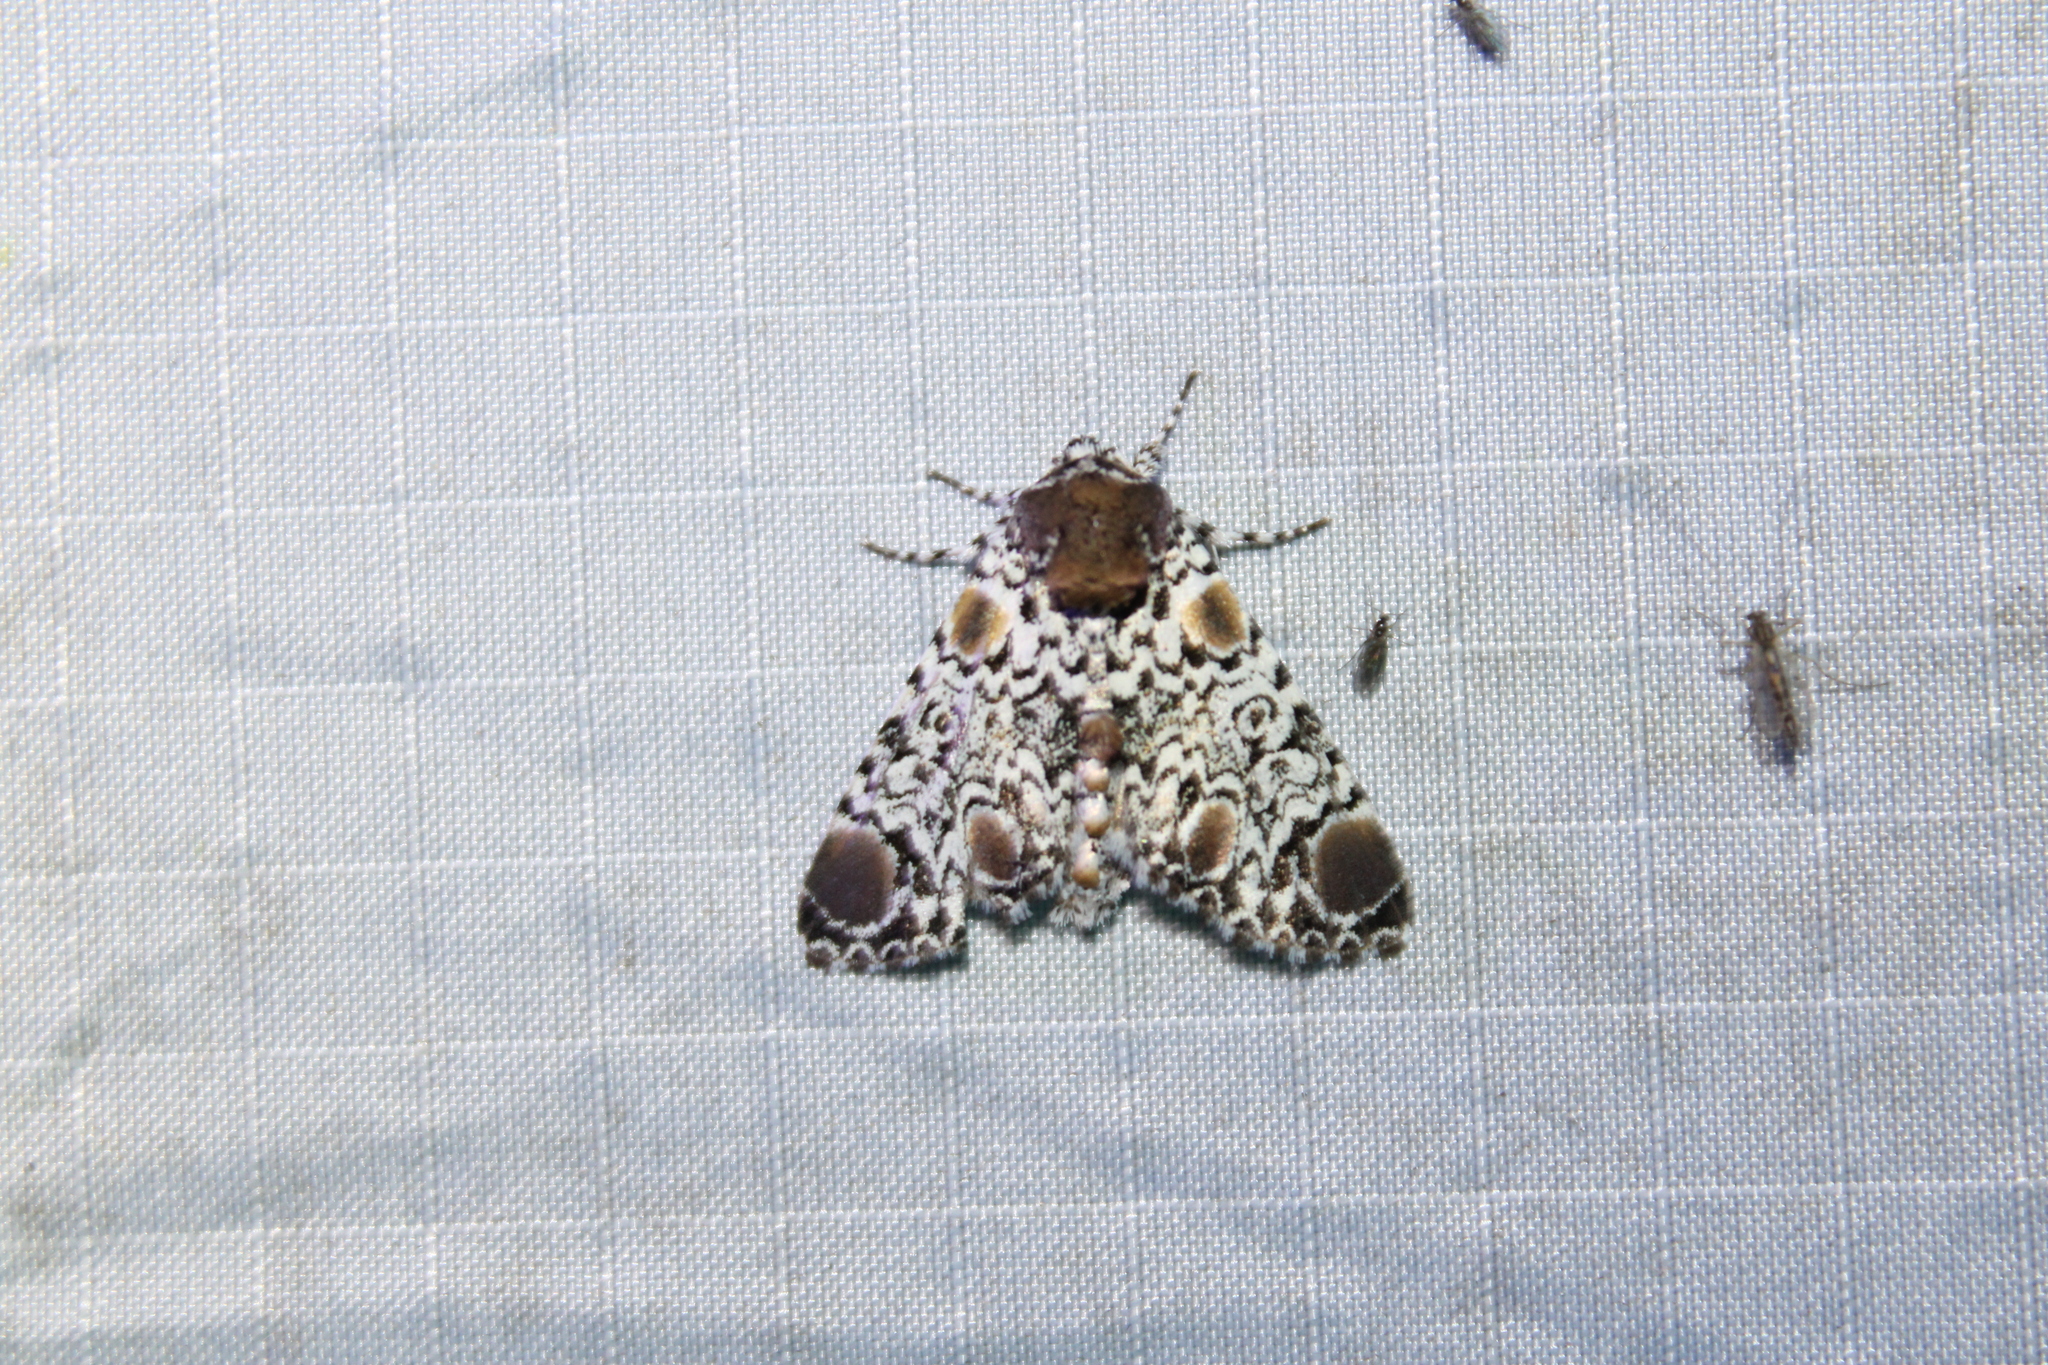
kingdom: Animalia
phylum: Arthropoda
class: Insecta
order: Lepidoptera
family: Noctuidae
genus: Harrisimemna
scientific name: Harrisimemna trisignata
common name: Harris threespot
